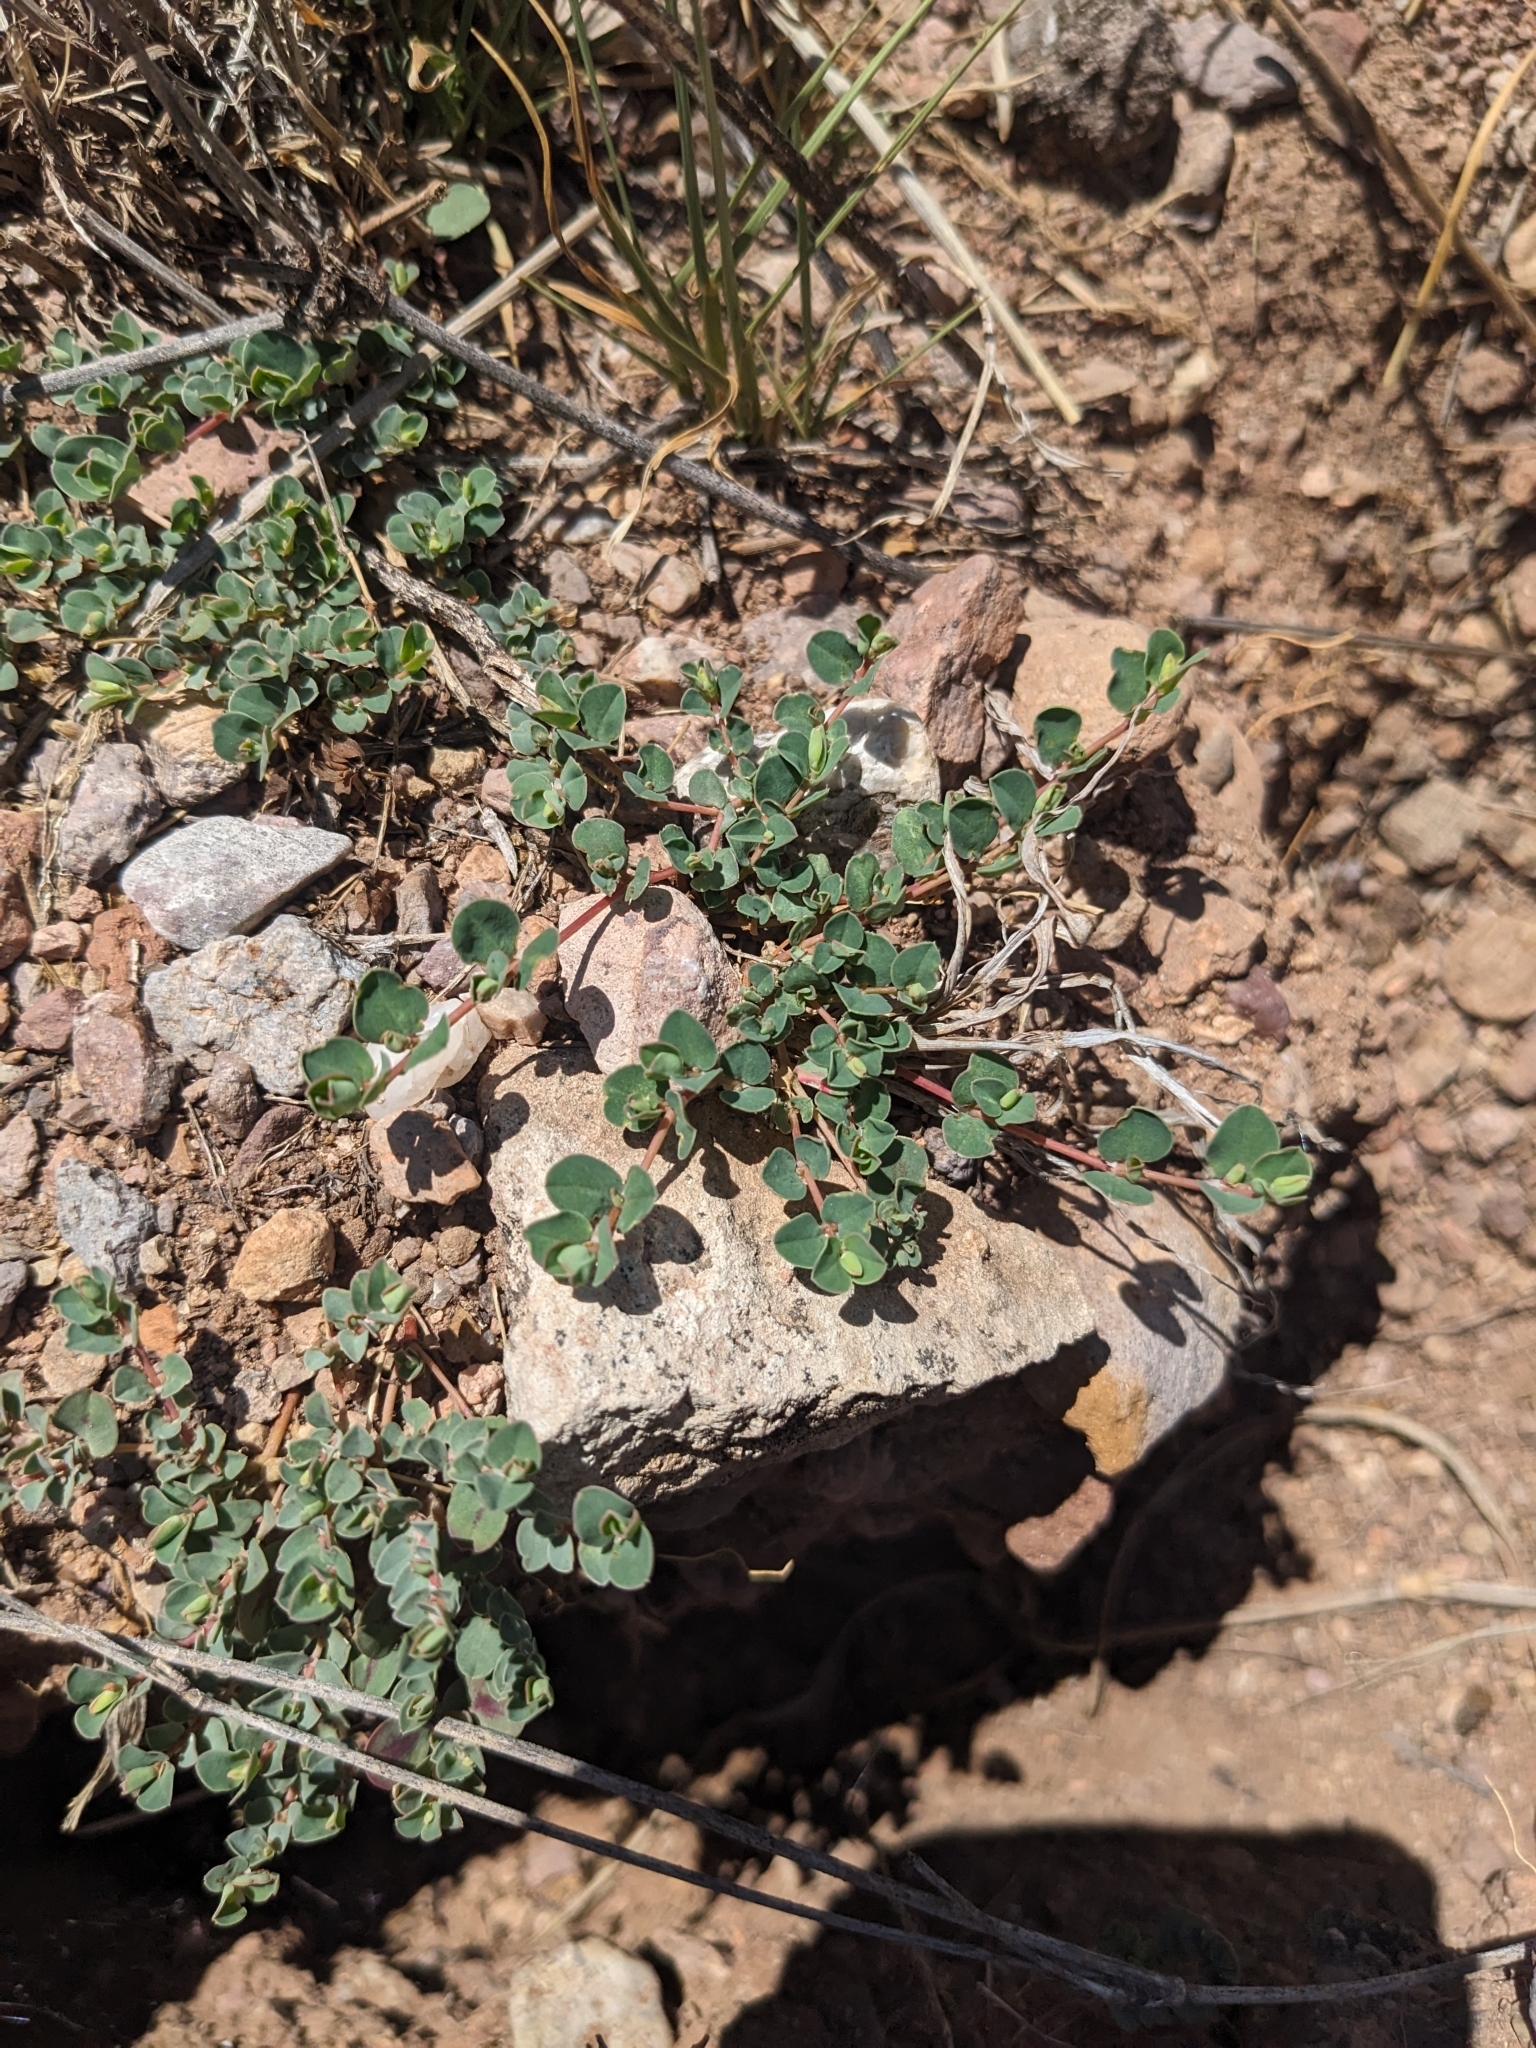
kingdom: Plantae
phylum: Tracheophyta
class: Magnoliopsida
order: Malpighiales
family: Euphorbiaceae
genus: Euphorbia
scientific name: Euphorbia albomarginata
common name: Whitemargin sandmat
